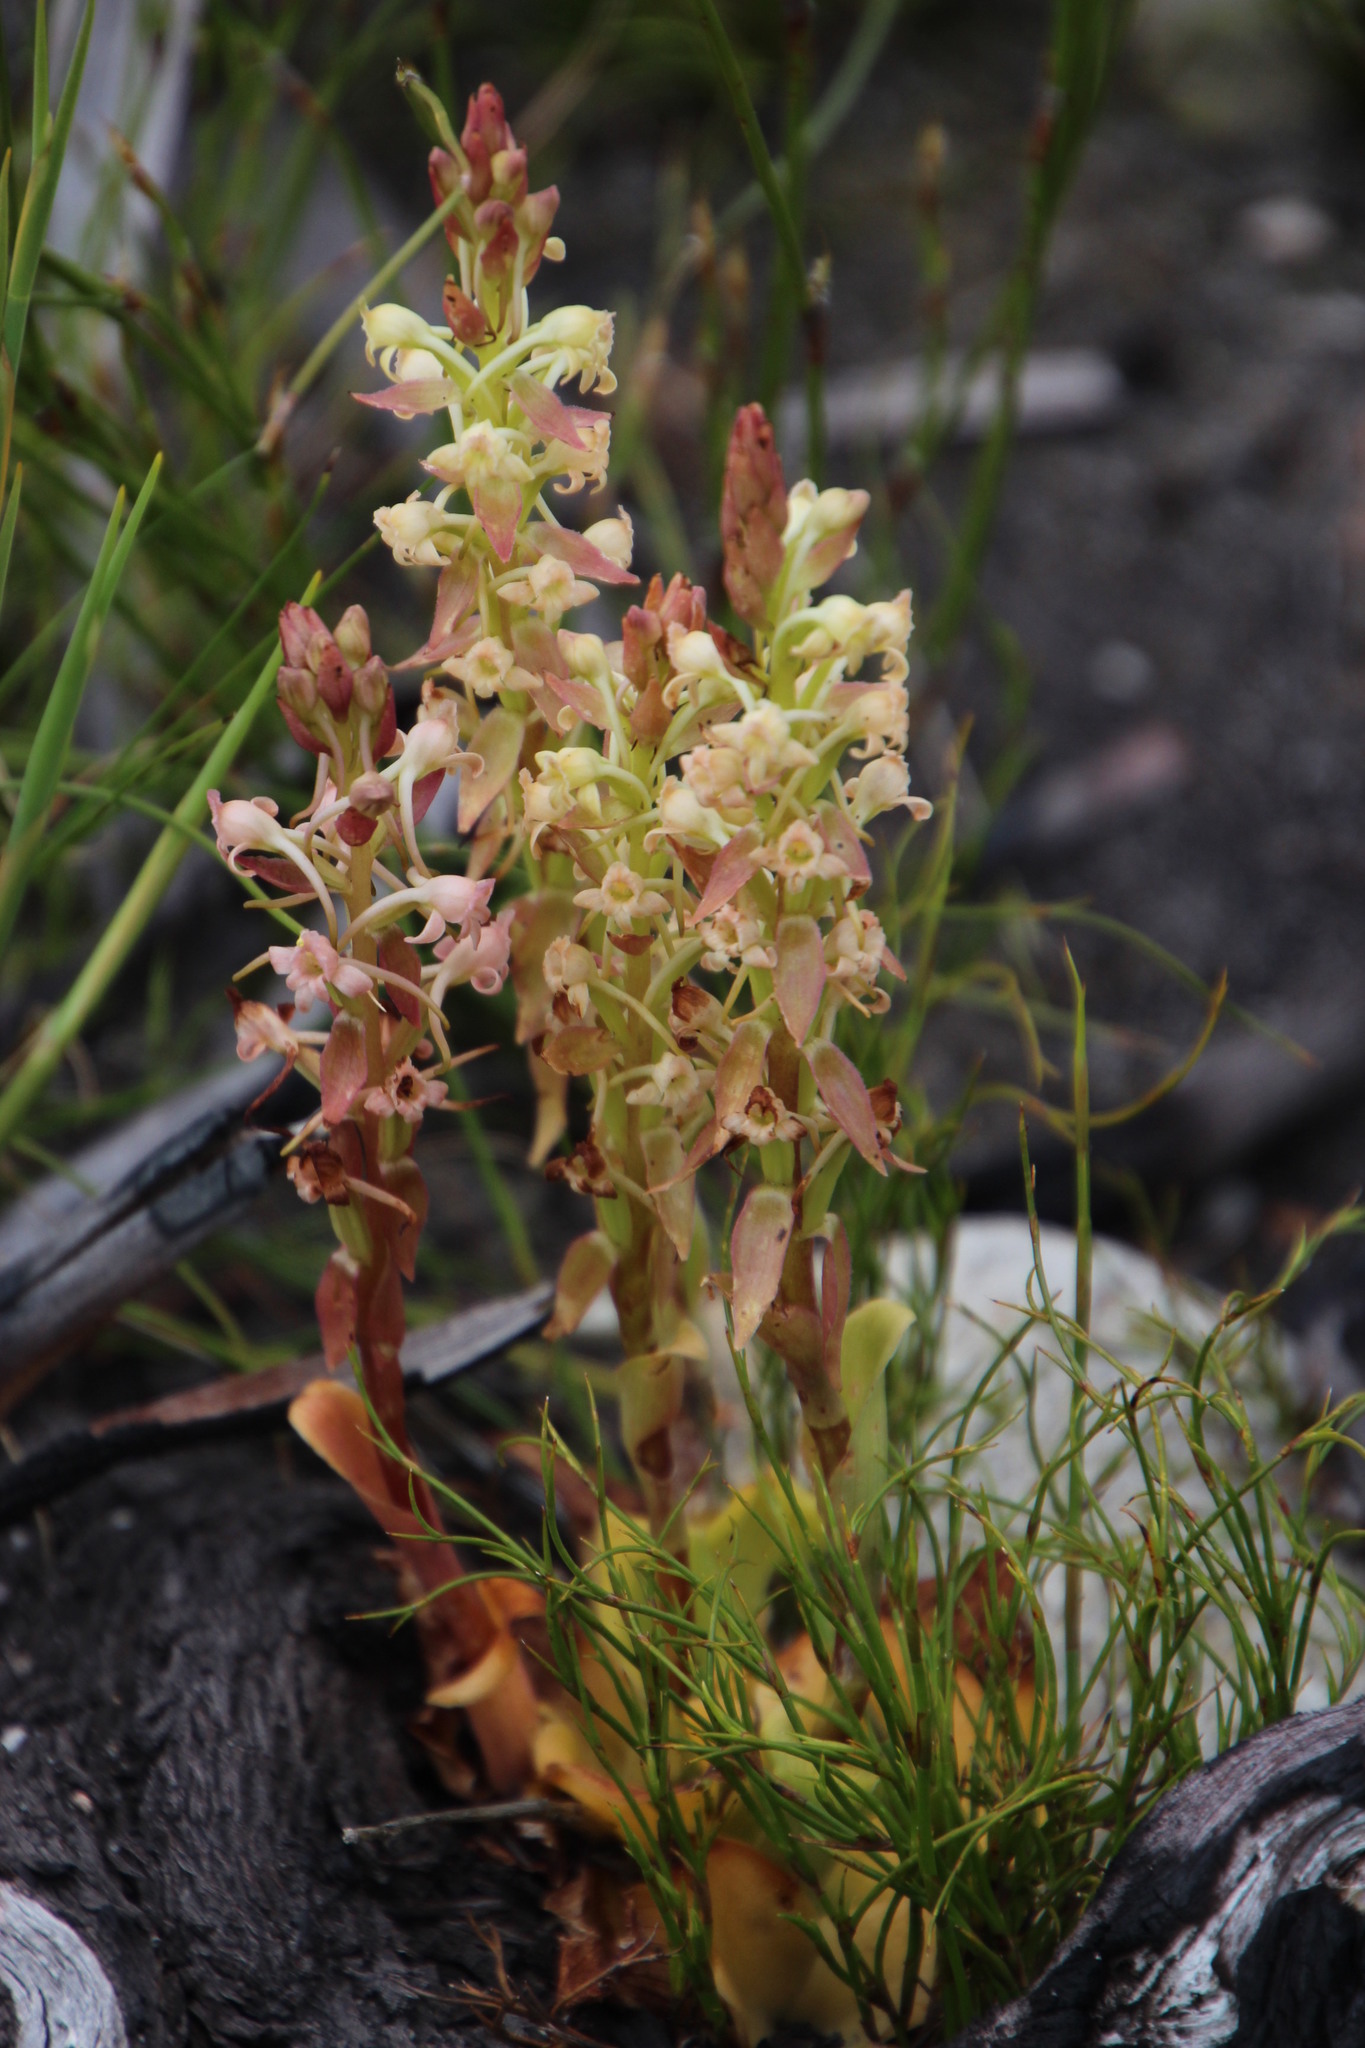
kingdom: Plantae
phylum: Tracheophyta
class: Liliopsida
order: Asparagales
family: Orchidaceae
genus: Satyrium
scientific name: Satyrium humile
